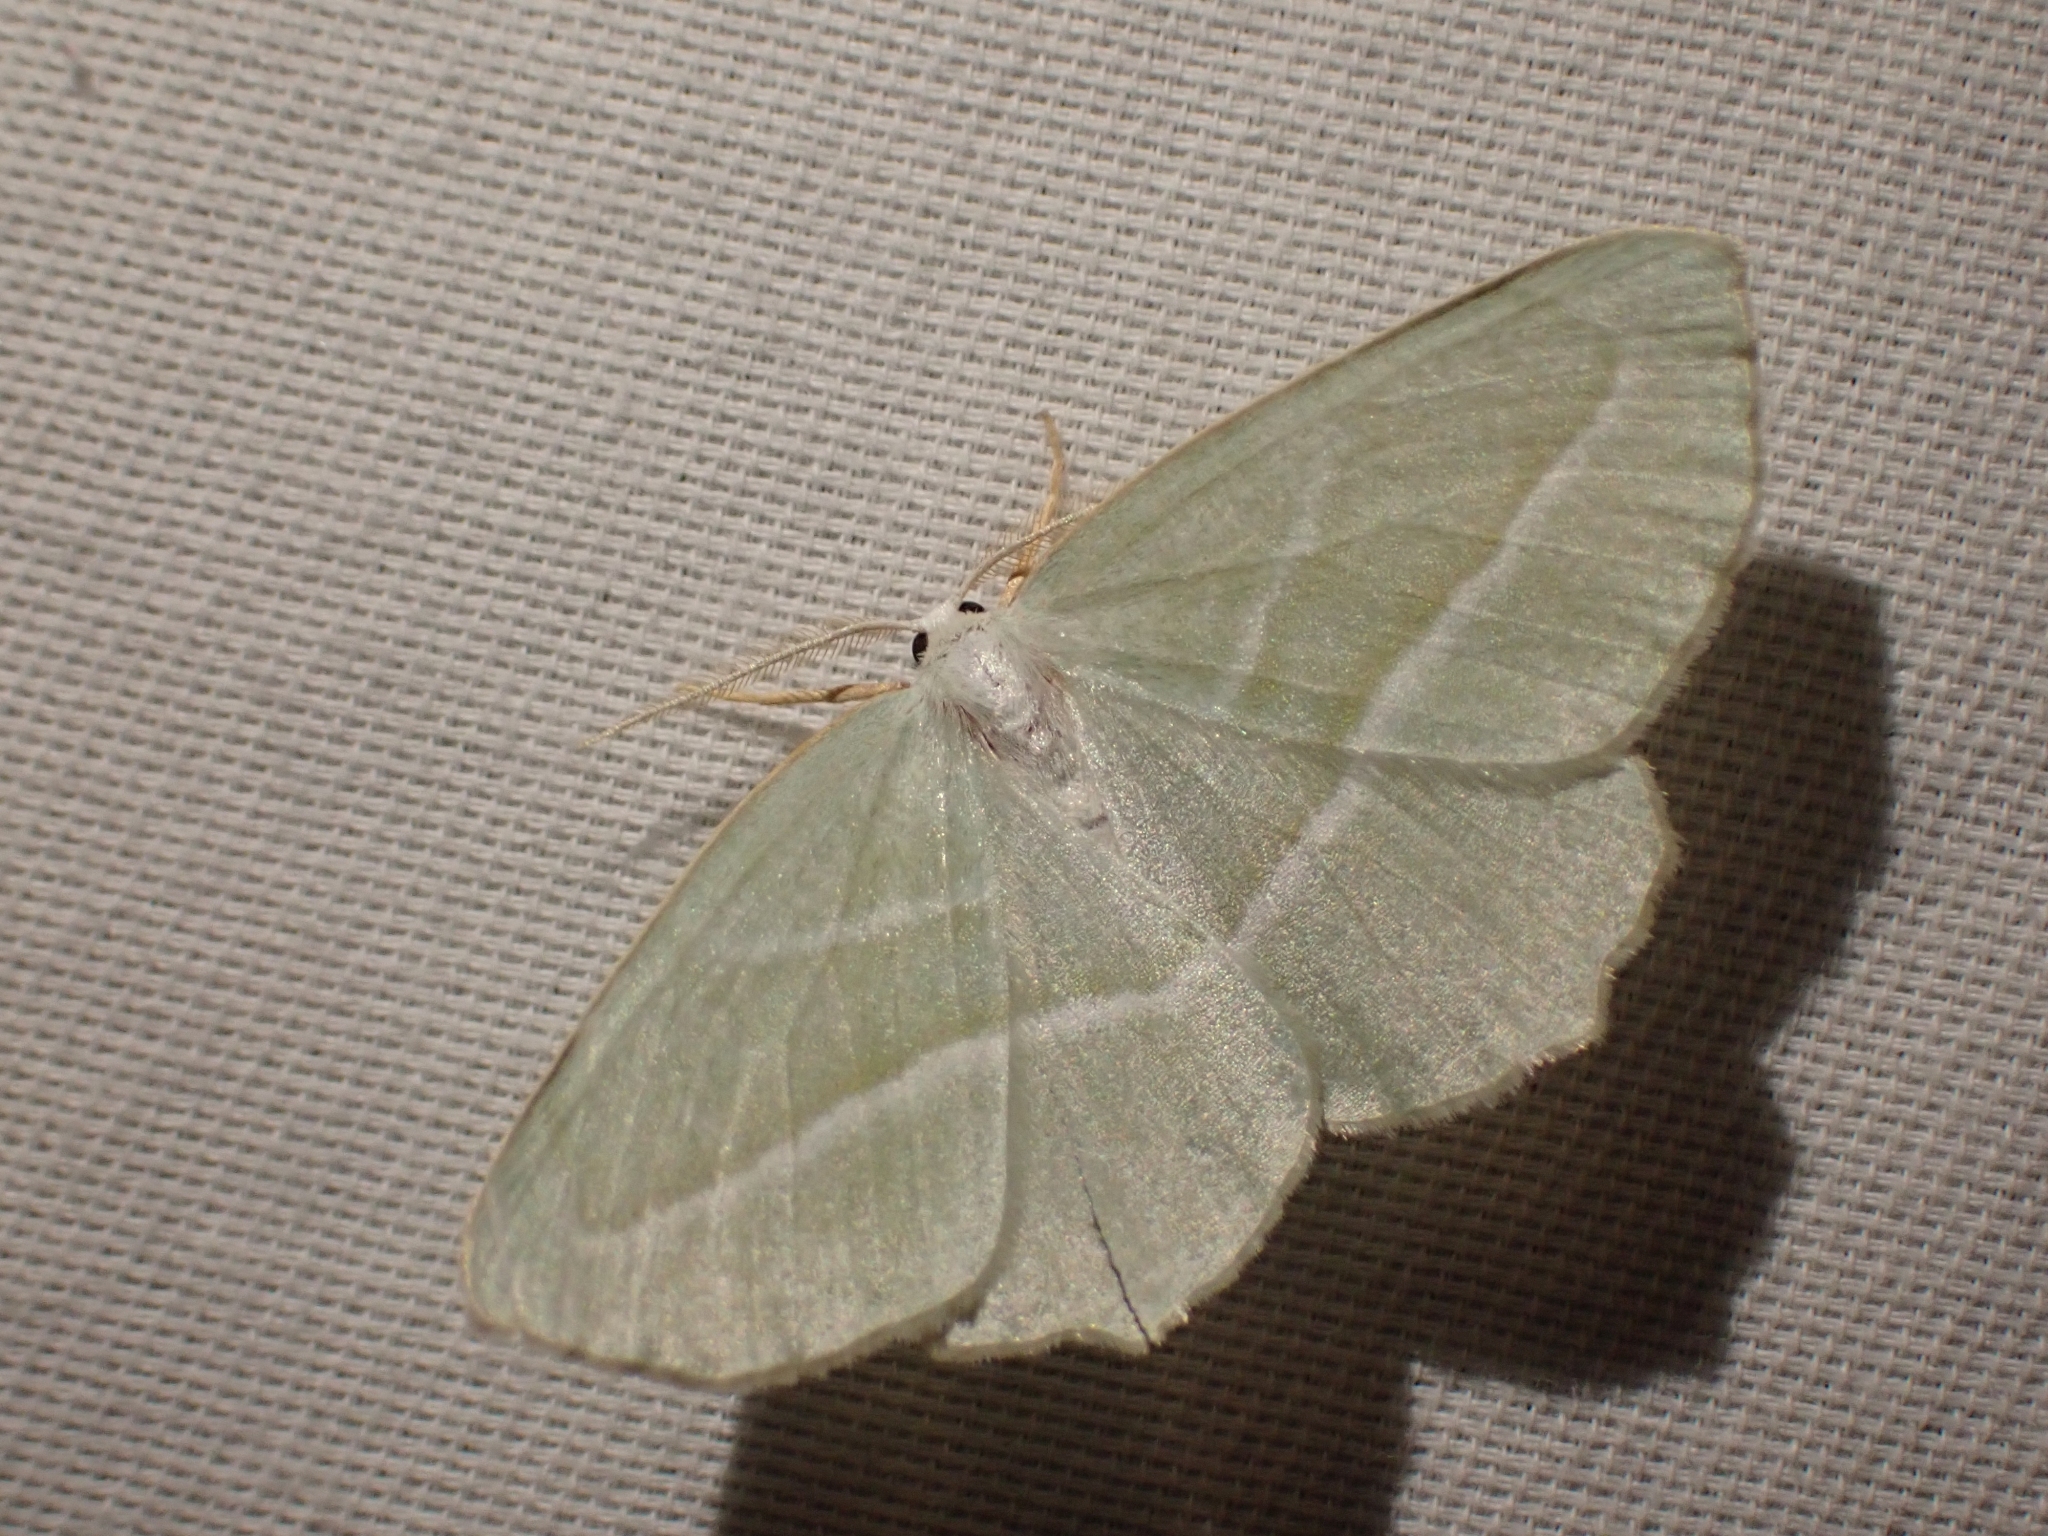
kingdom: Animalia
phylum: Arthropoda
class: Insecta
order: Lepidoptera
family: Geometridae
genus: Campaea
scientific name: Campaea perlata
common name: Fringed looper
